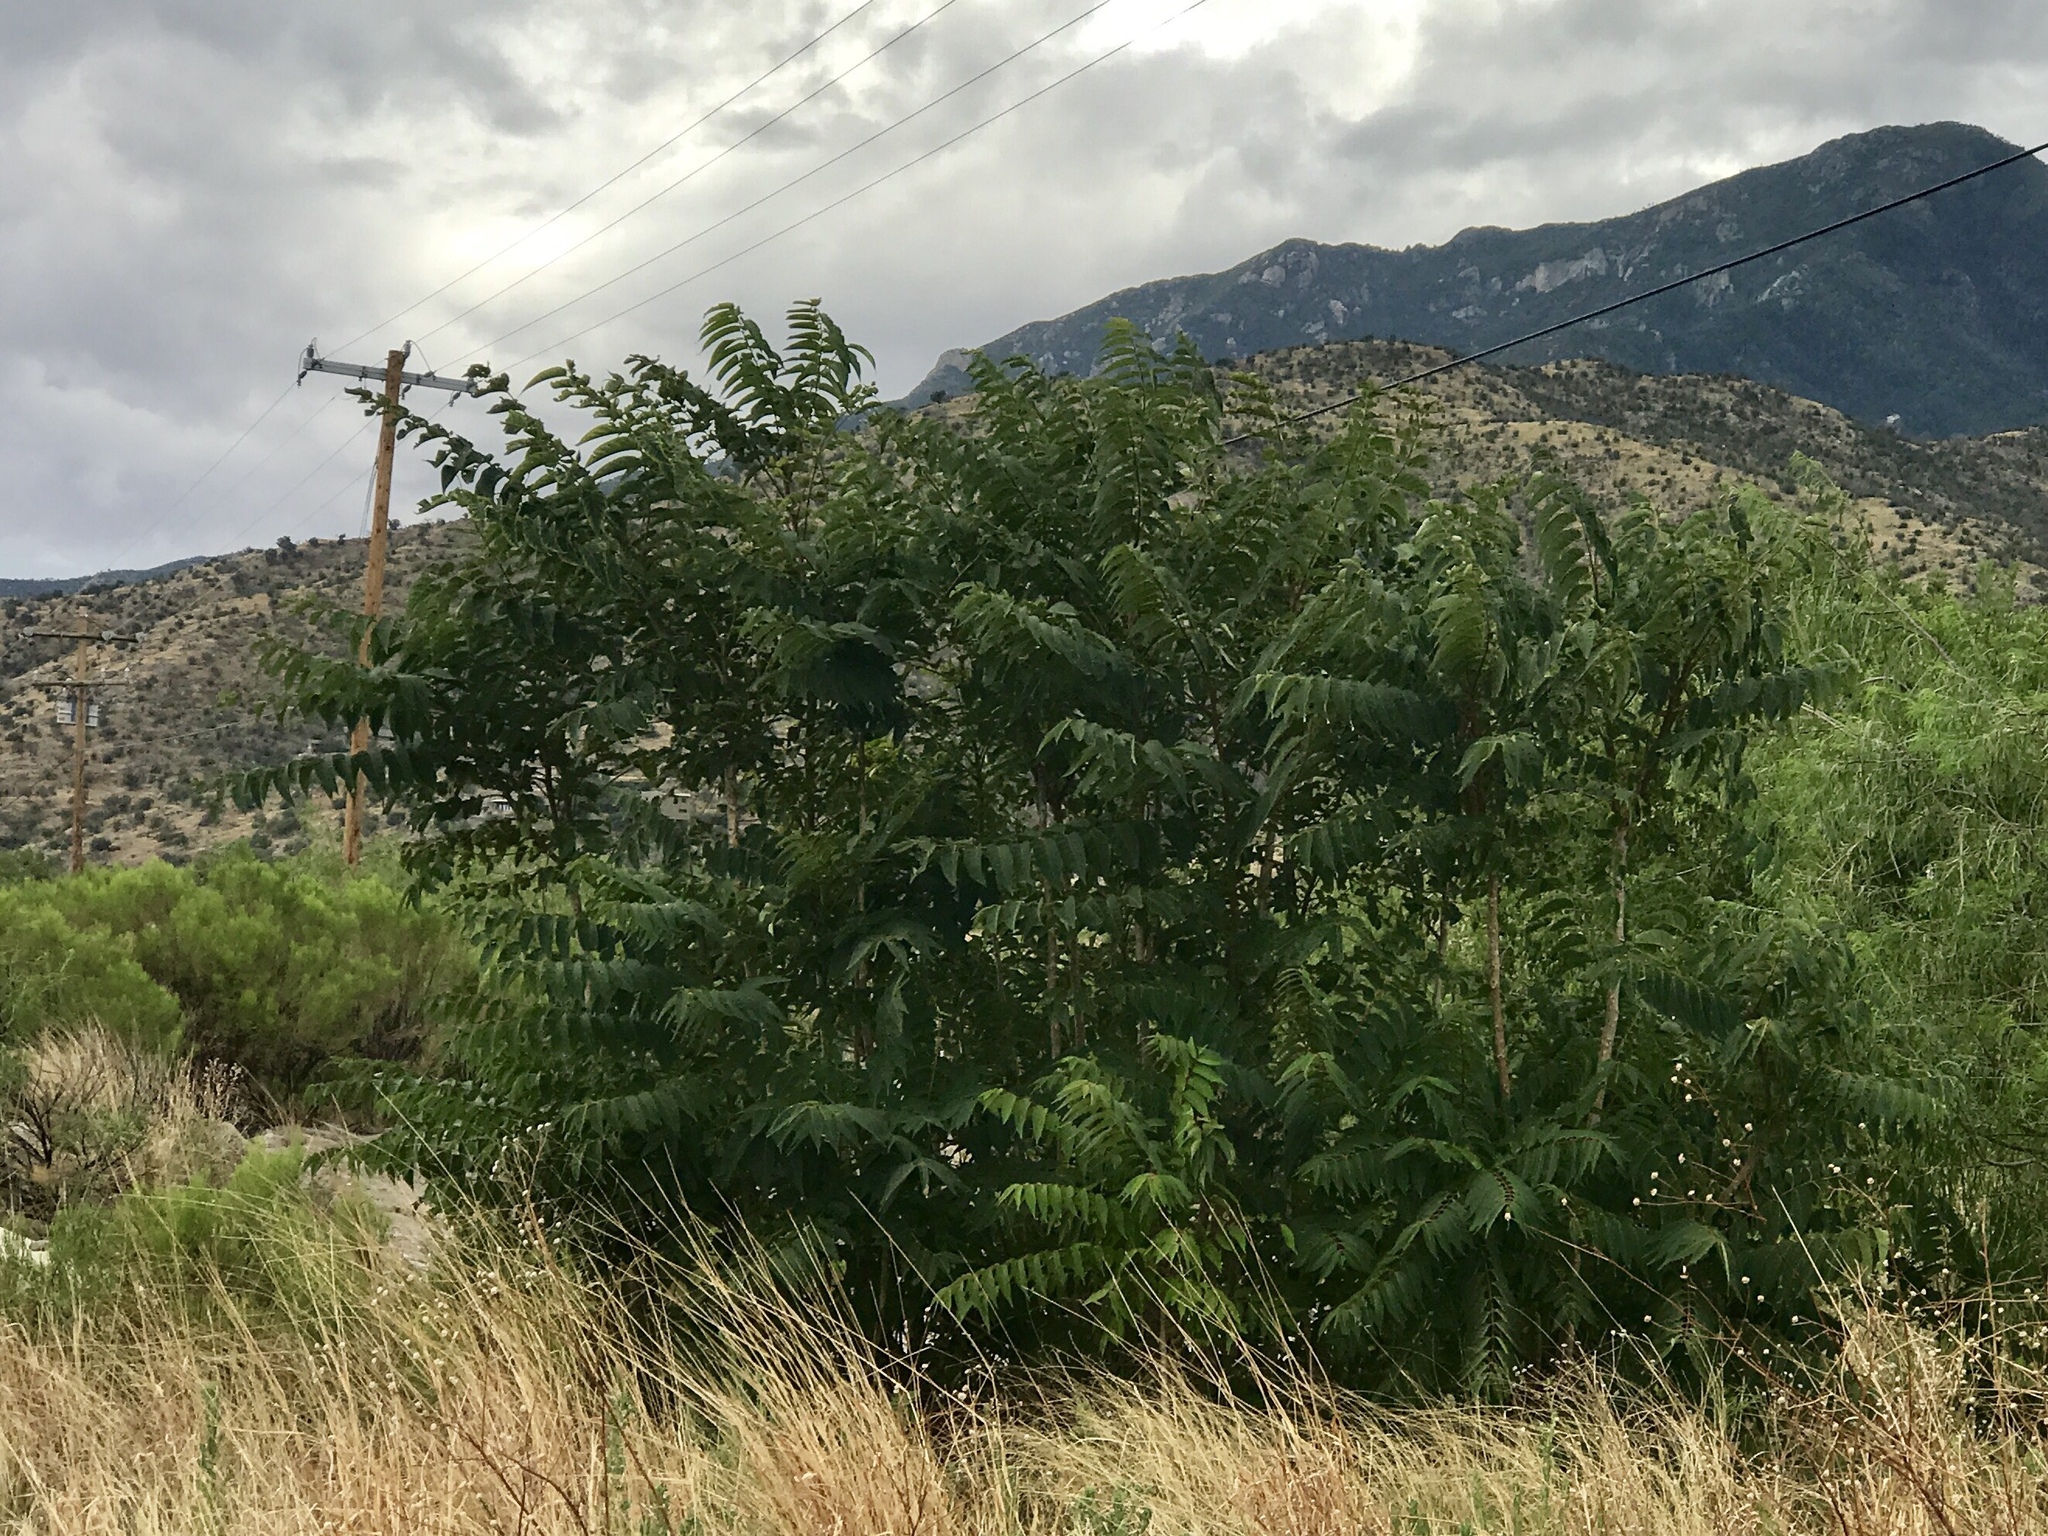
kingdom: Plantae
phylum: Tracheophyta
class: Magnoliopsida
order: Sapindales
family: Simaroubaceae
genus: Ailanthus
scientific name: Ailanthus altissima
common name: Tree-of-heaven
